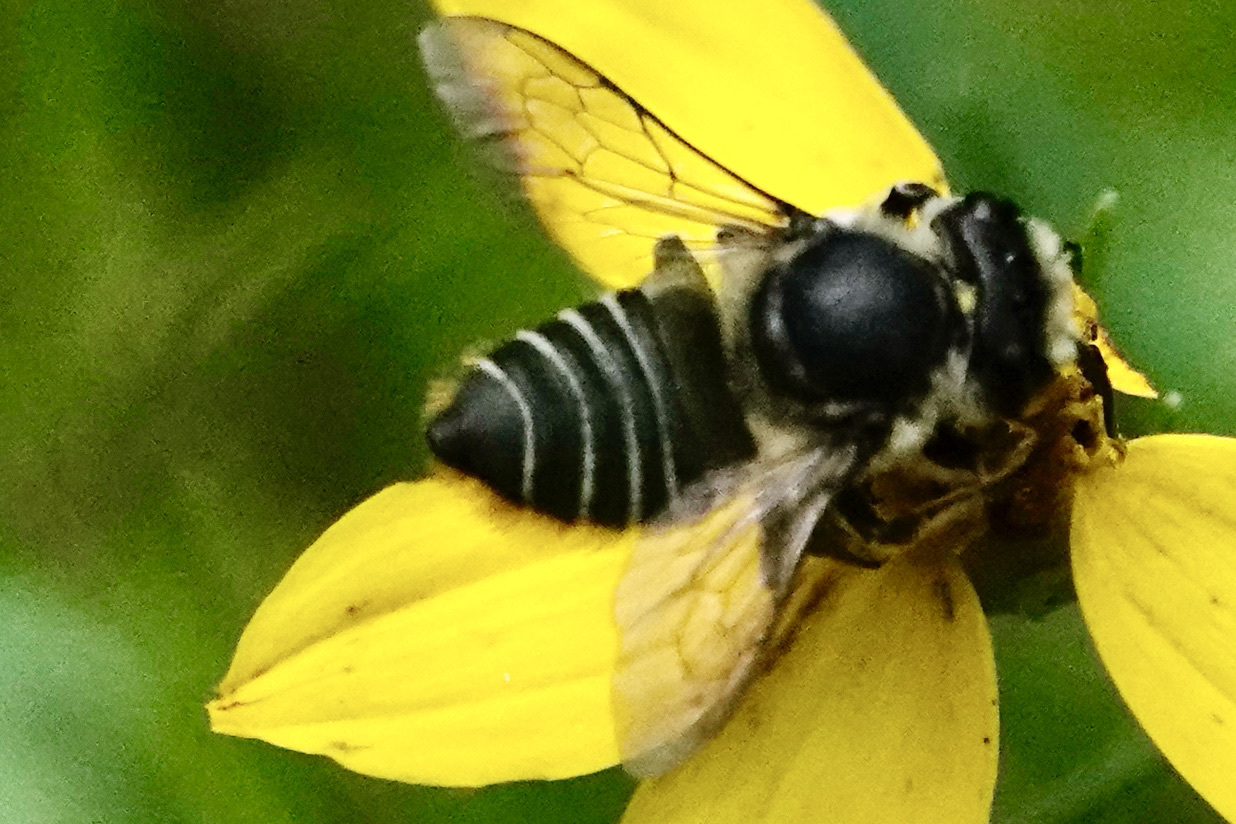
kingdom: Animalia
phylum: Arthropoda
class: Insecta
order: Hymenoptera
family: Megachilidae
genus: Megachile
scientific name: Megachile mendica
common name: Flat-tailed leafcutter
